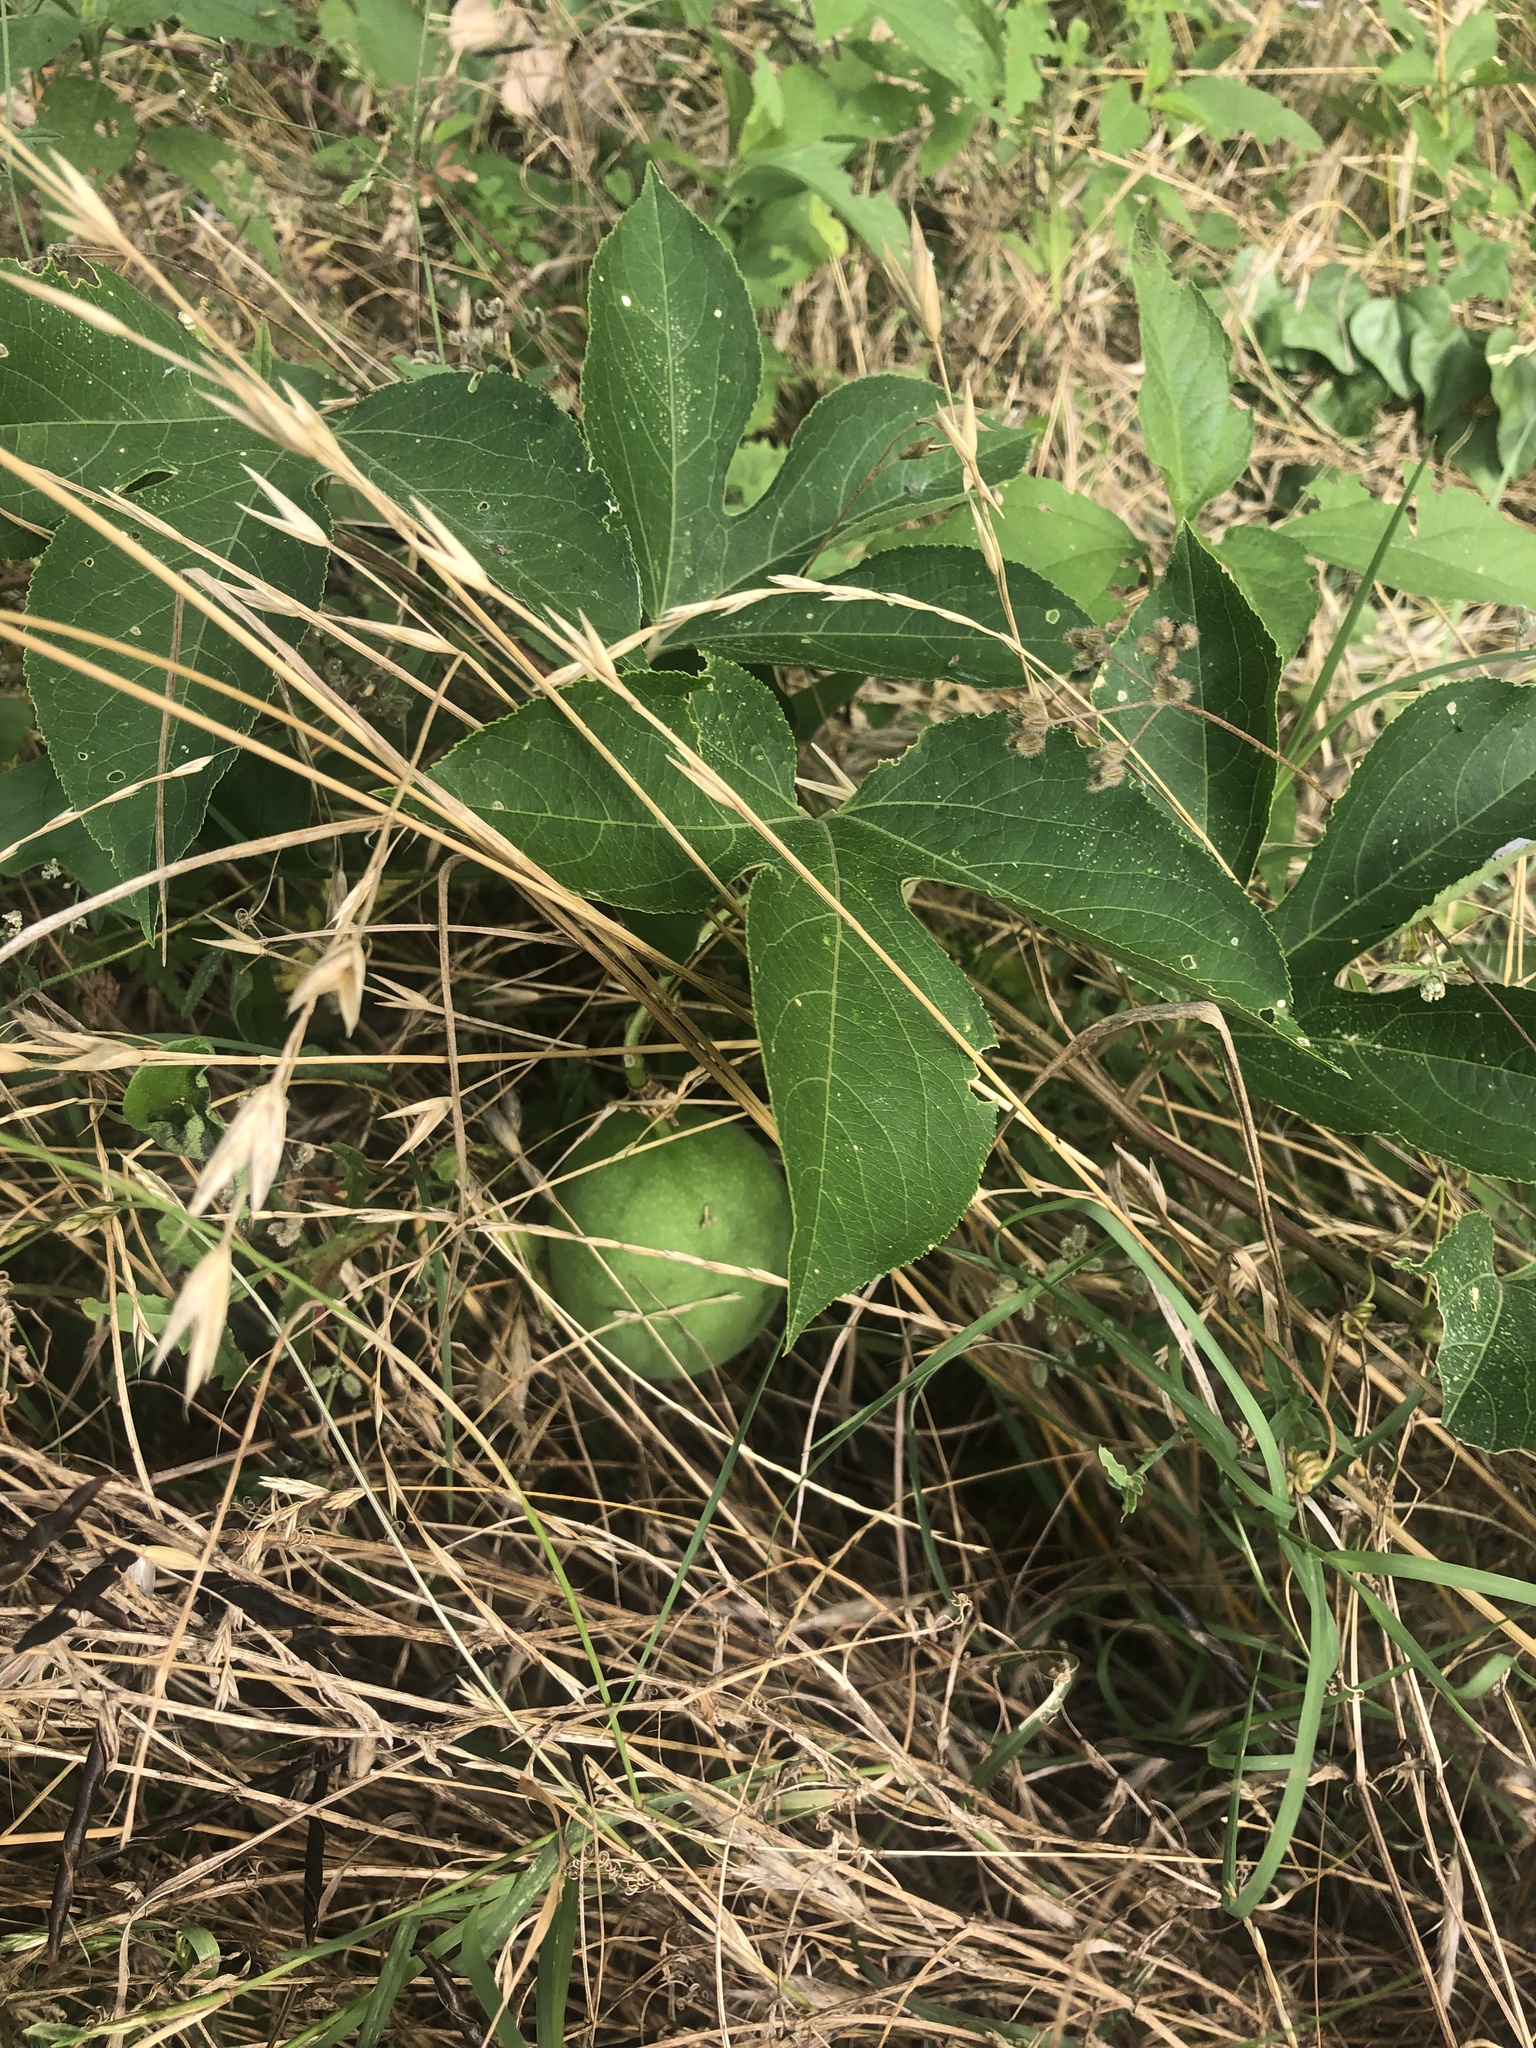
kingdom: Plantae
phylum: Tracheophyta
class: Magnoliopsida
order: Malpighiales
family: Passifloraceae
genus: Passiflora
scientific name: Passiflora incarnata
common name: Apricot-vine
